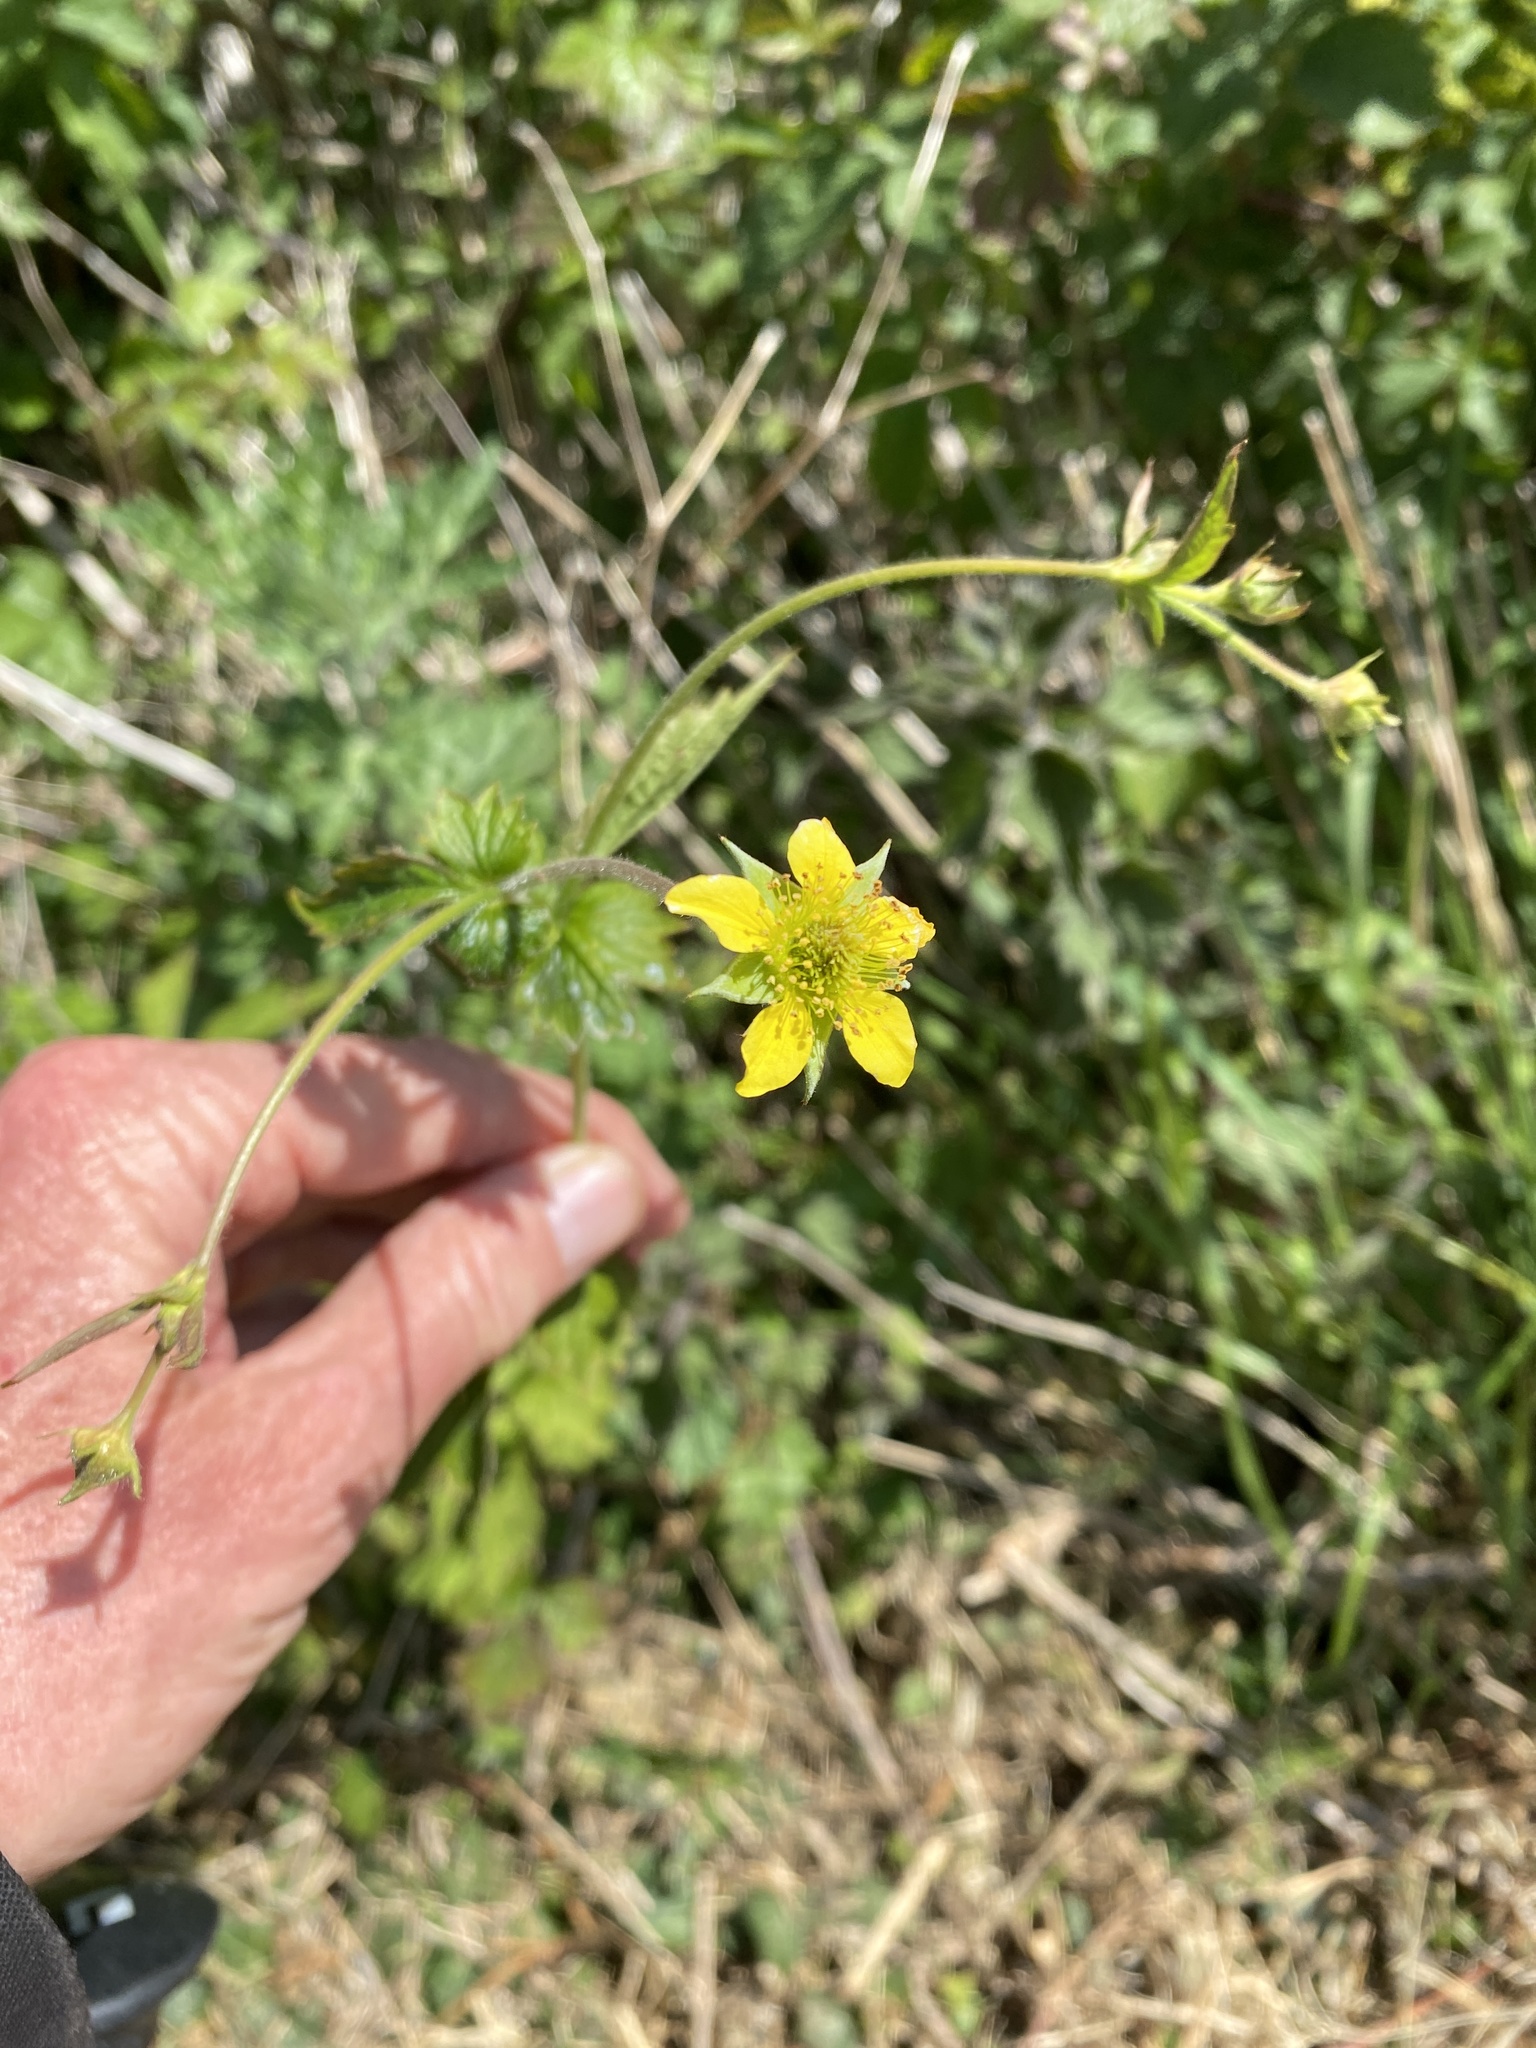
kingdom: Plantae
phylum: Tracheophyta
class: Magnoliopsida
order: Rosales
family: Rosaceae
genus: Geum
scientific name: Geum urbanum
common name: Wood avens
